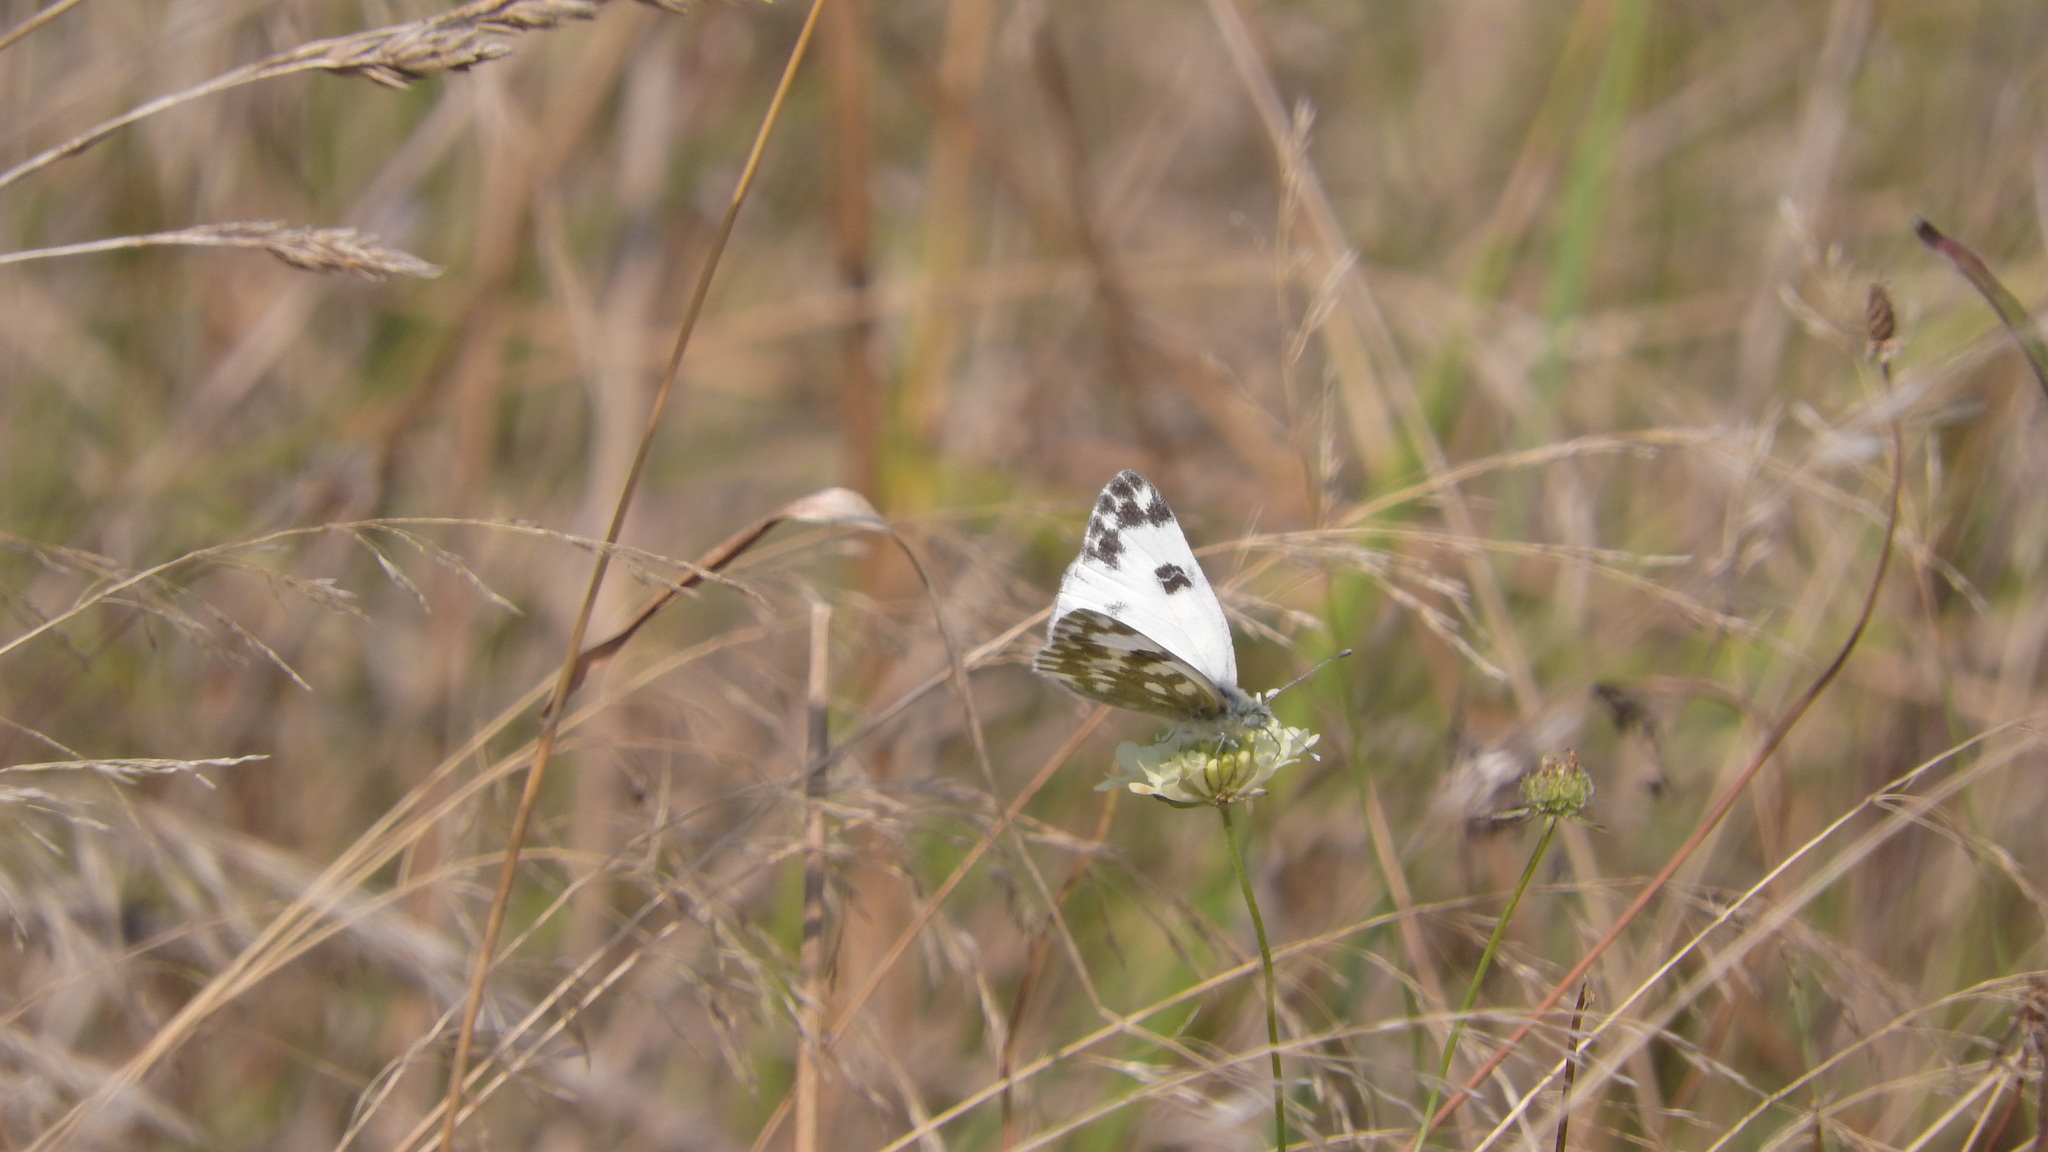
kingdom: Animalia
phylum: Arthropoda
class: Insecta
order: Lepidoptera
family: Pieridae
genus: Pontia
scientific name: Pontia edusa
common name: Eastern bath white
